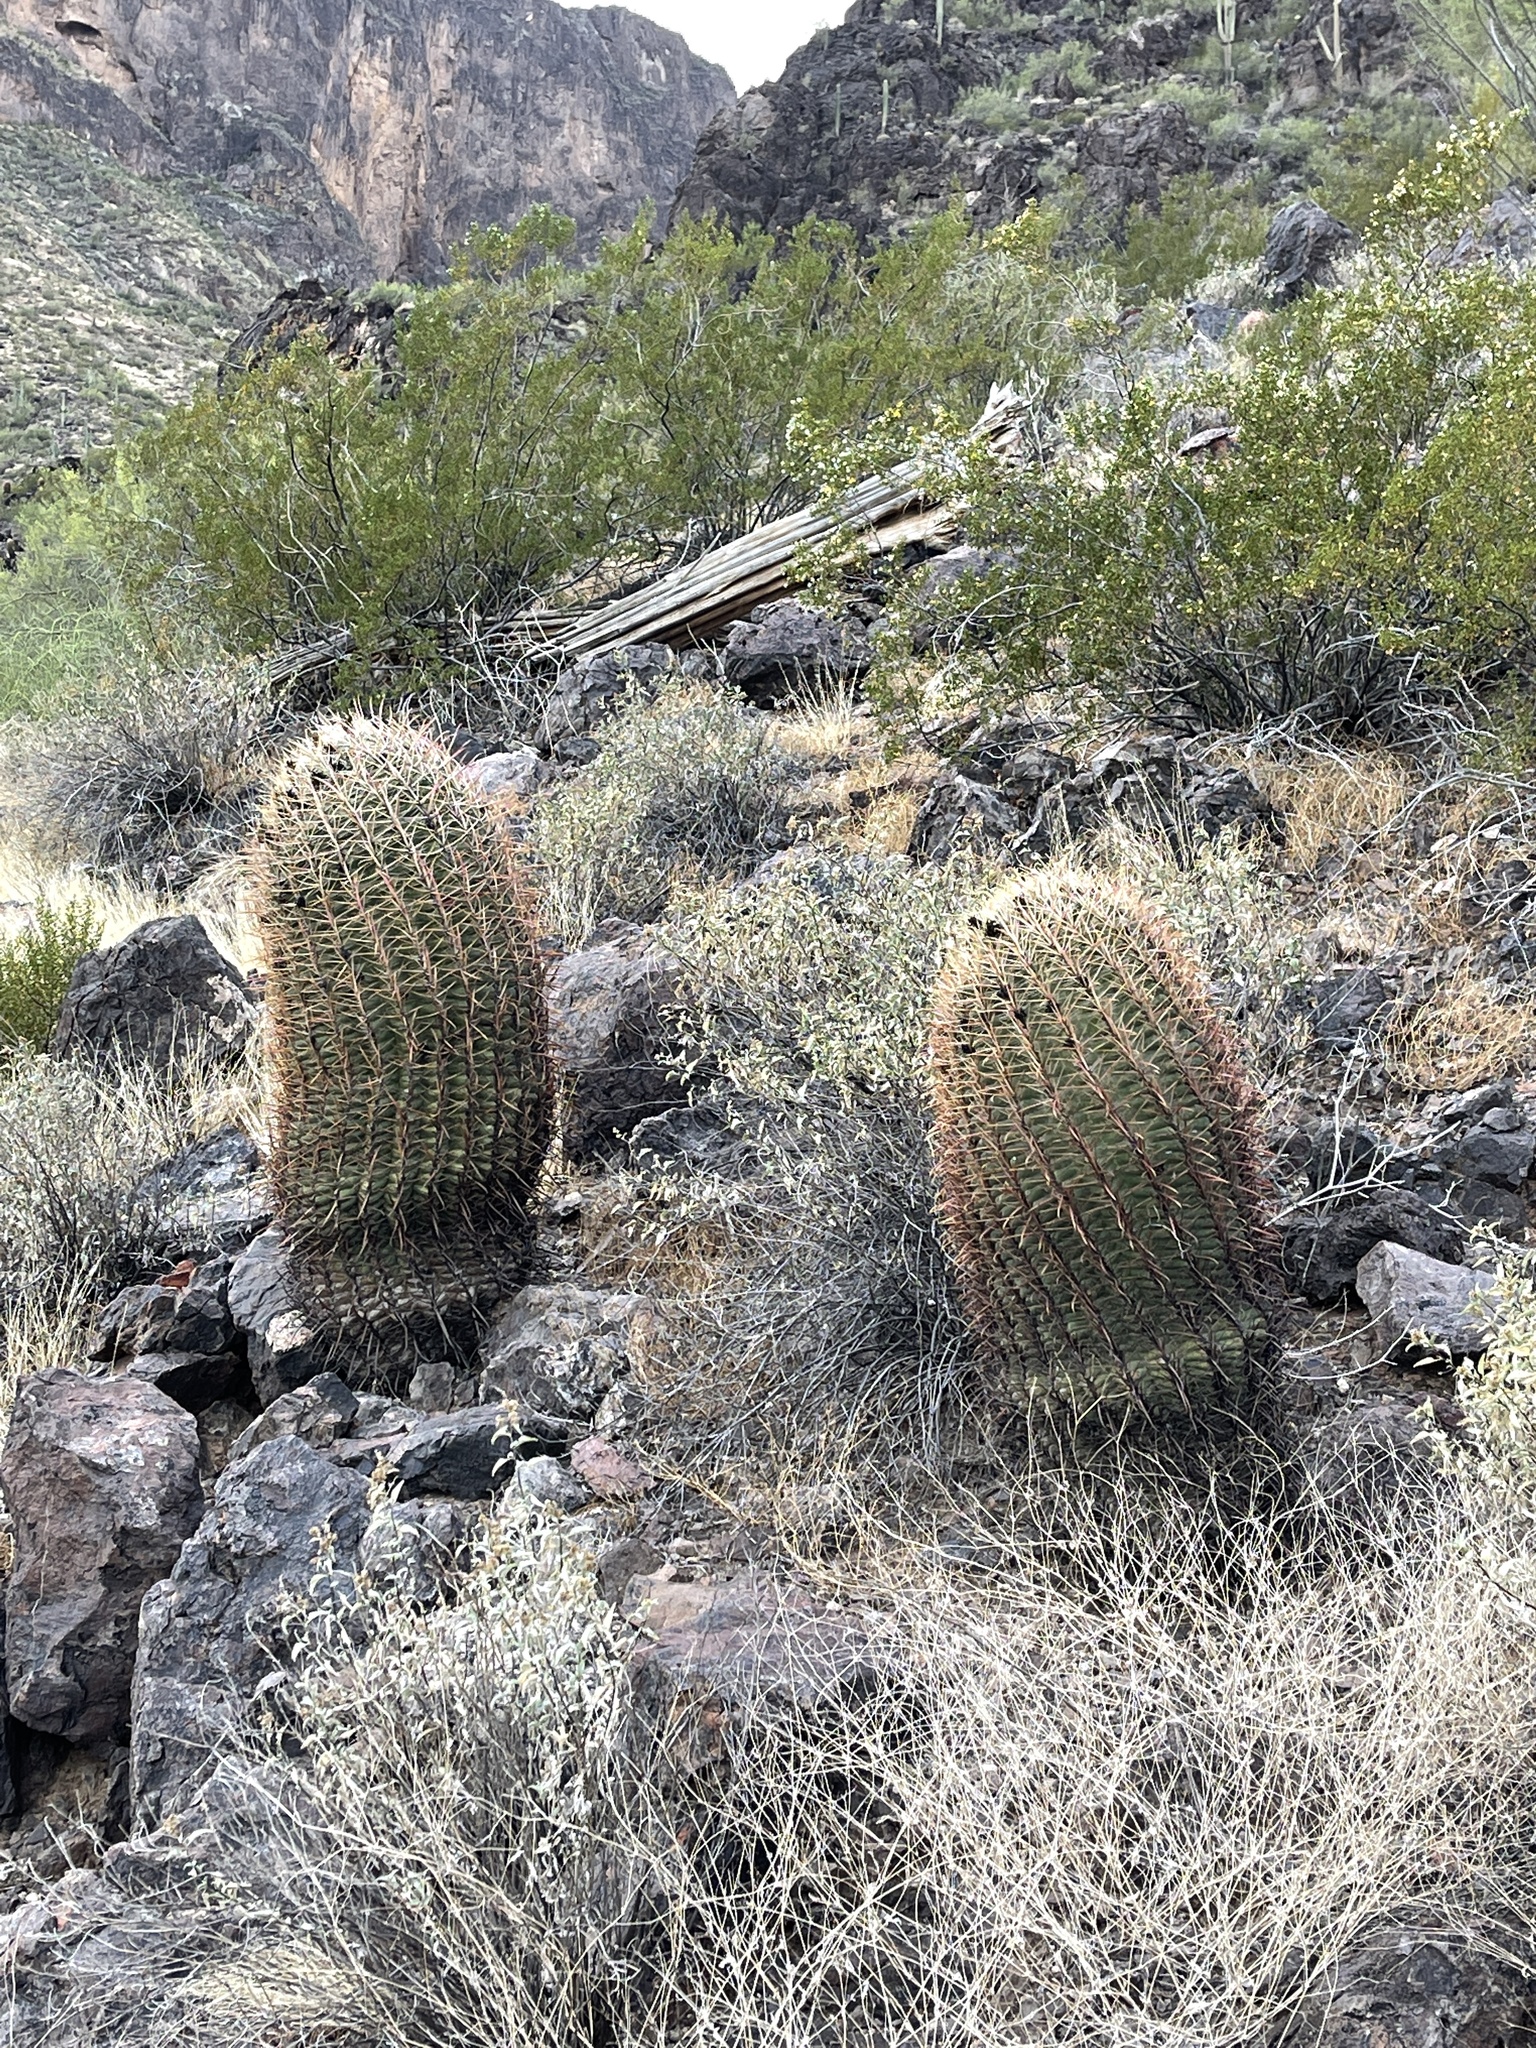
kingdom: Plantae
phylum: Tracheophyta
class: Magnoliopsida
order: Caryophyllales
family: Cactaceae
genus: Ferocactus
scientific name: Ferocactus wislizeni
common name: Candy barrel cactus
